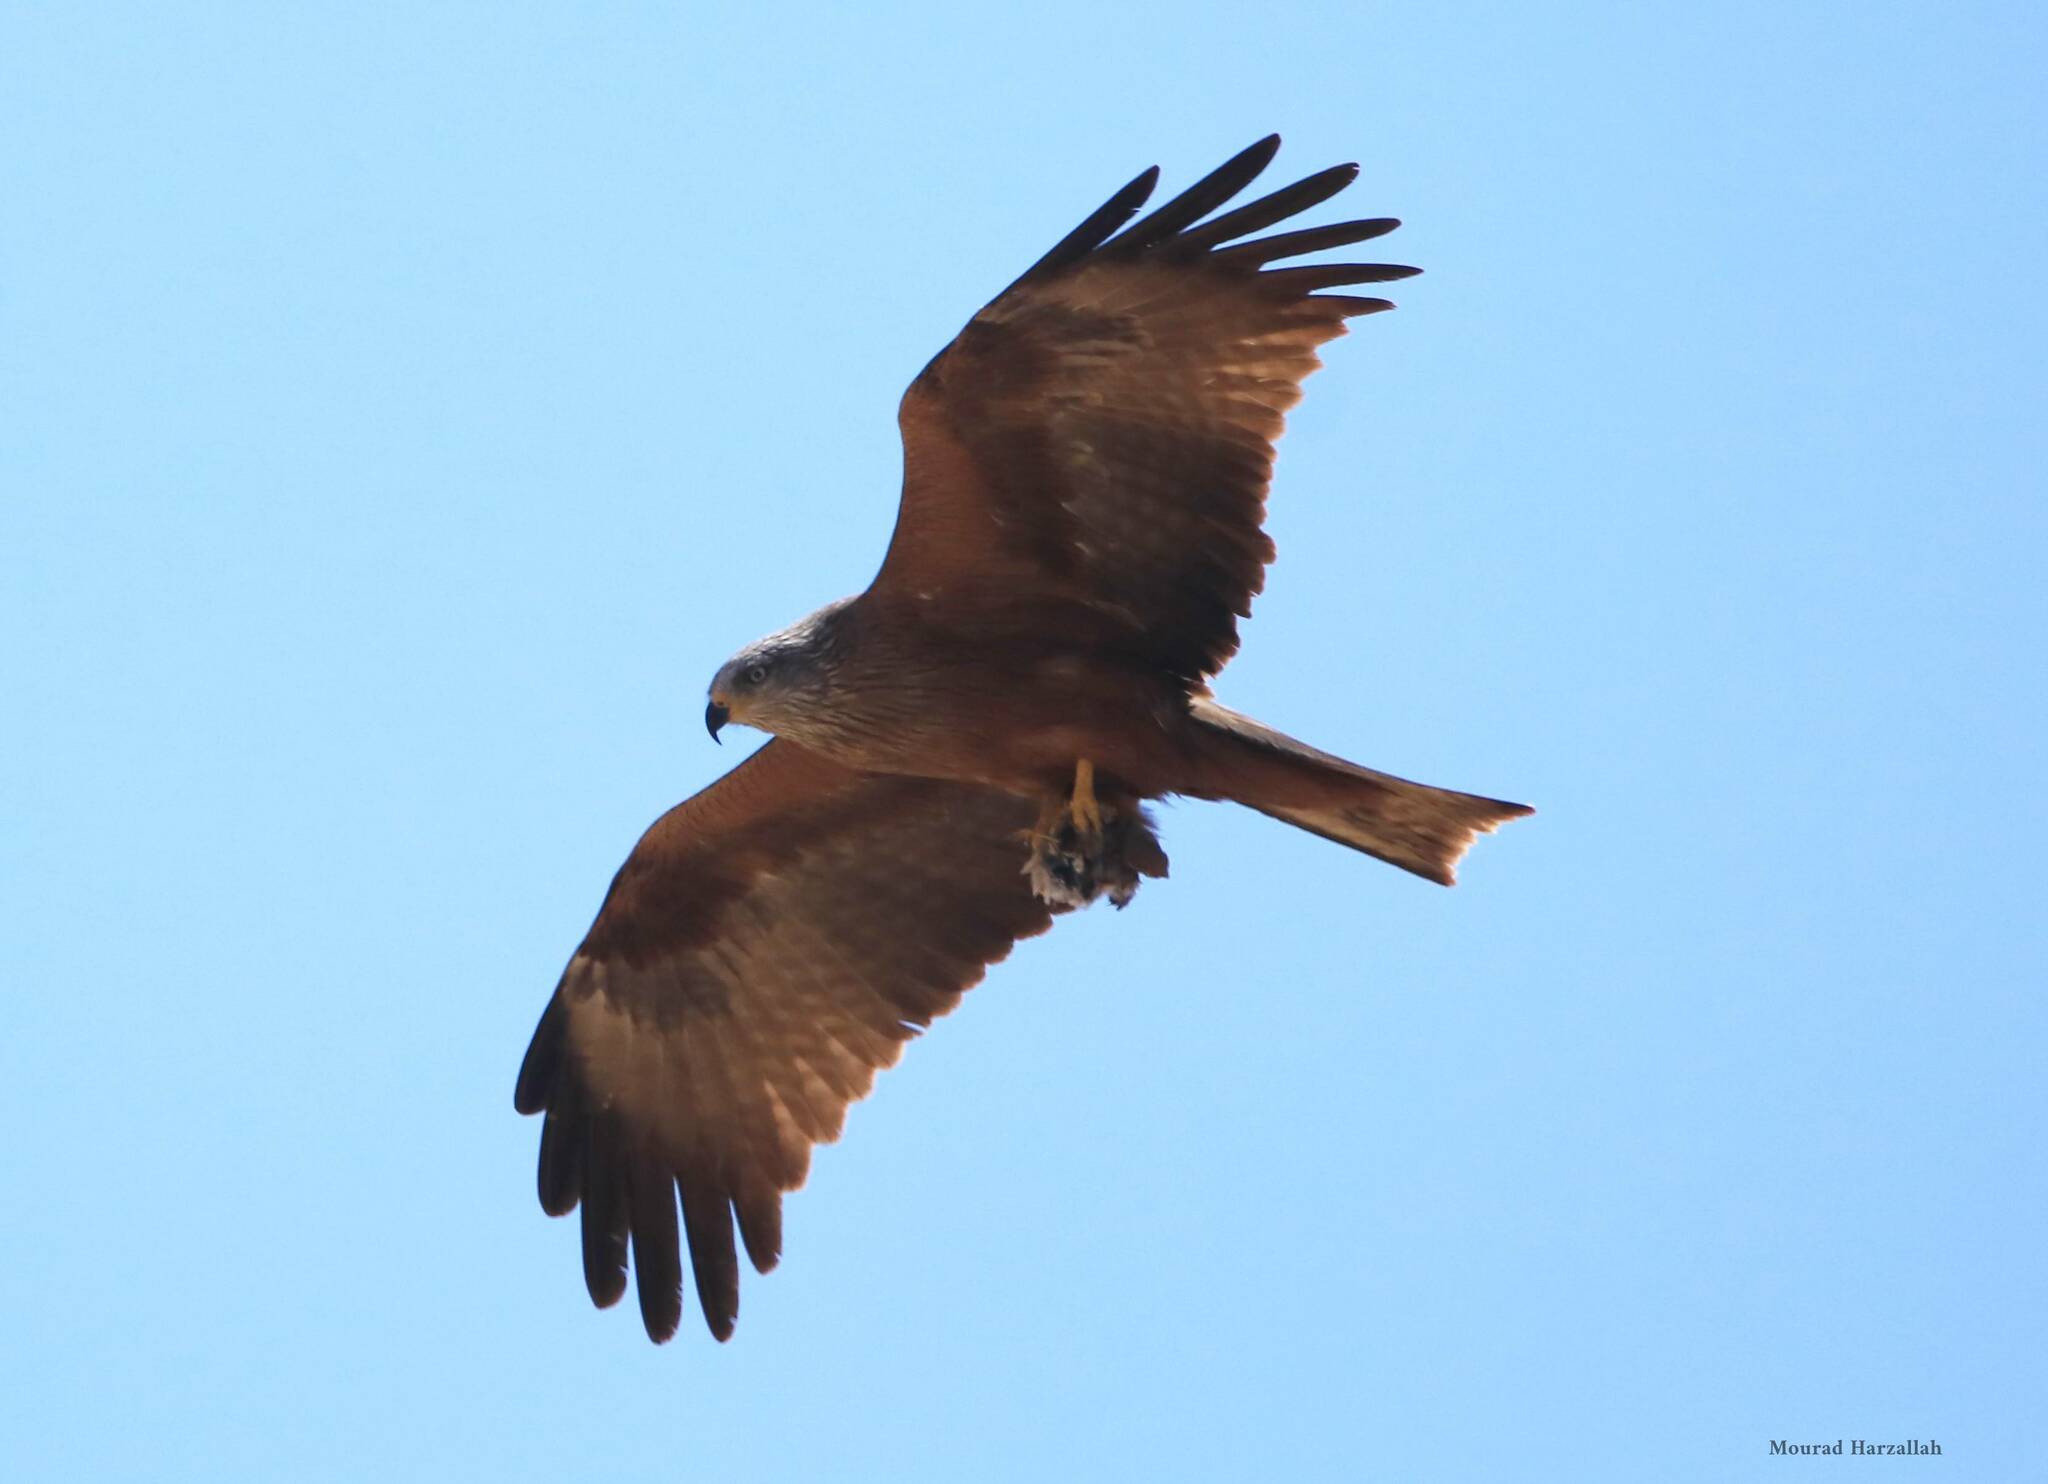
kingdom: Animalia
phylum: Chordata
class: Aves
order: Accipitriformes
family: Accipitridae
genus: Milvus
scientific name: Milvus migrans
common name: Black kite
